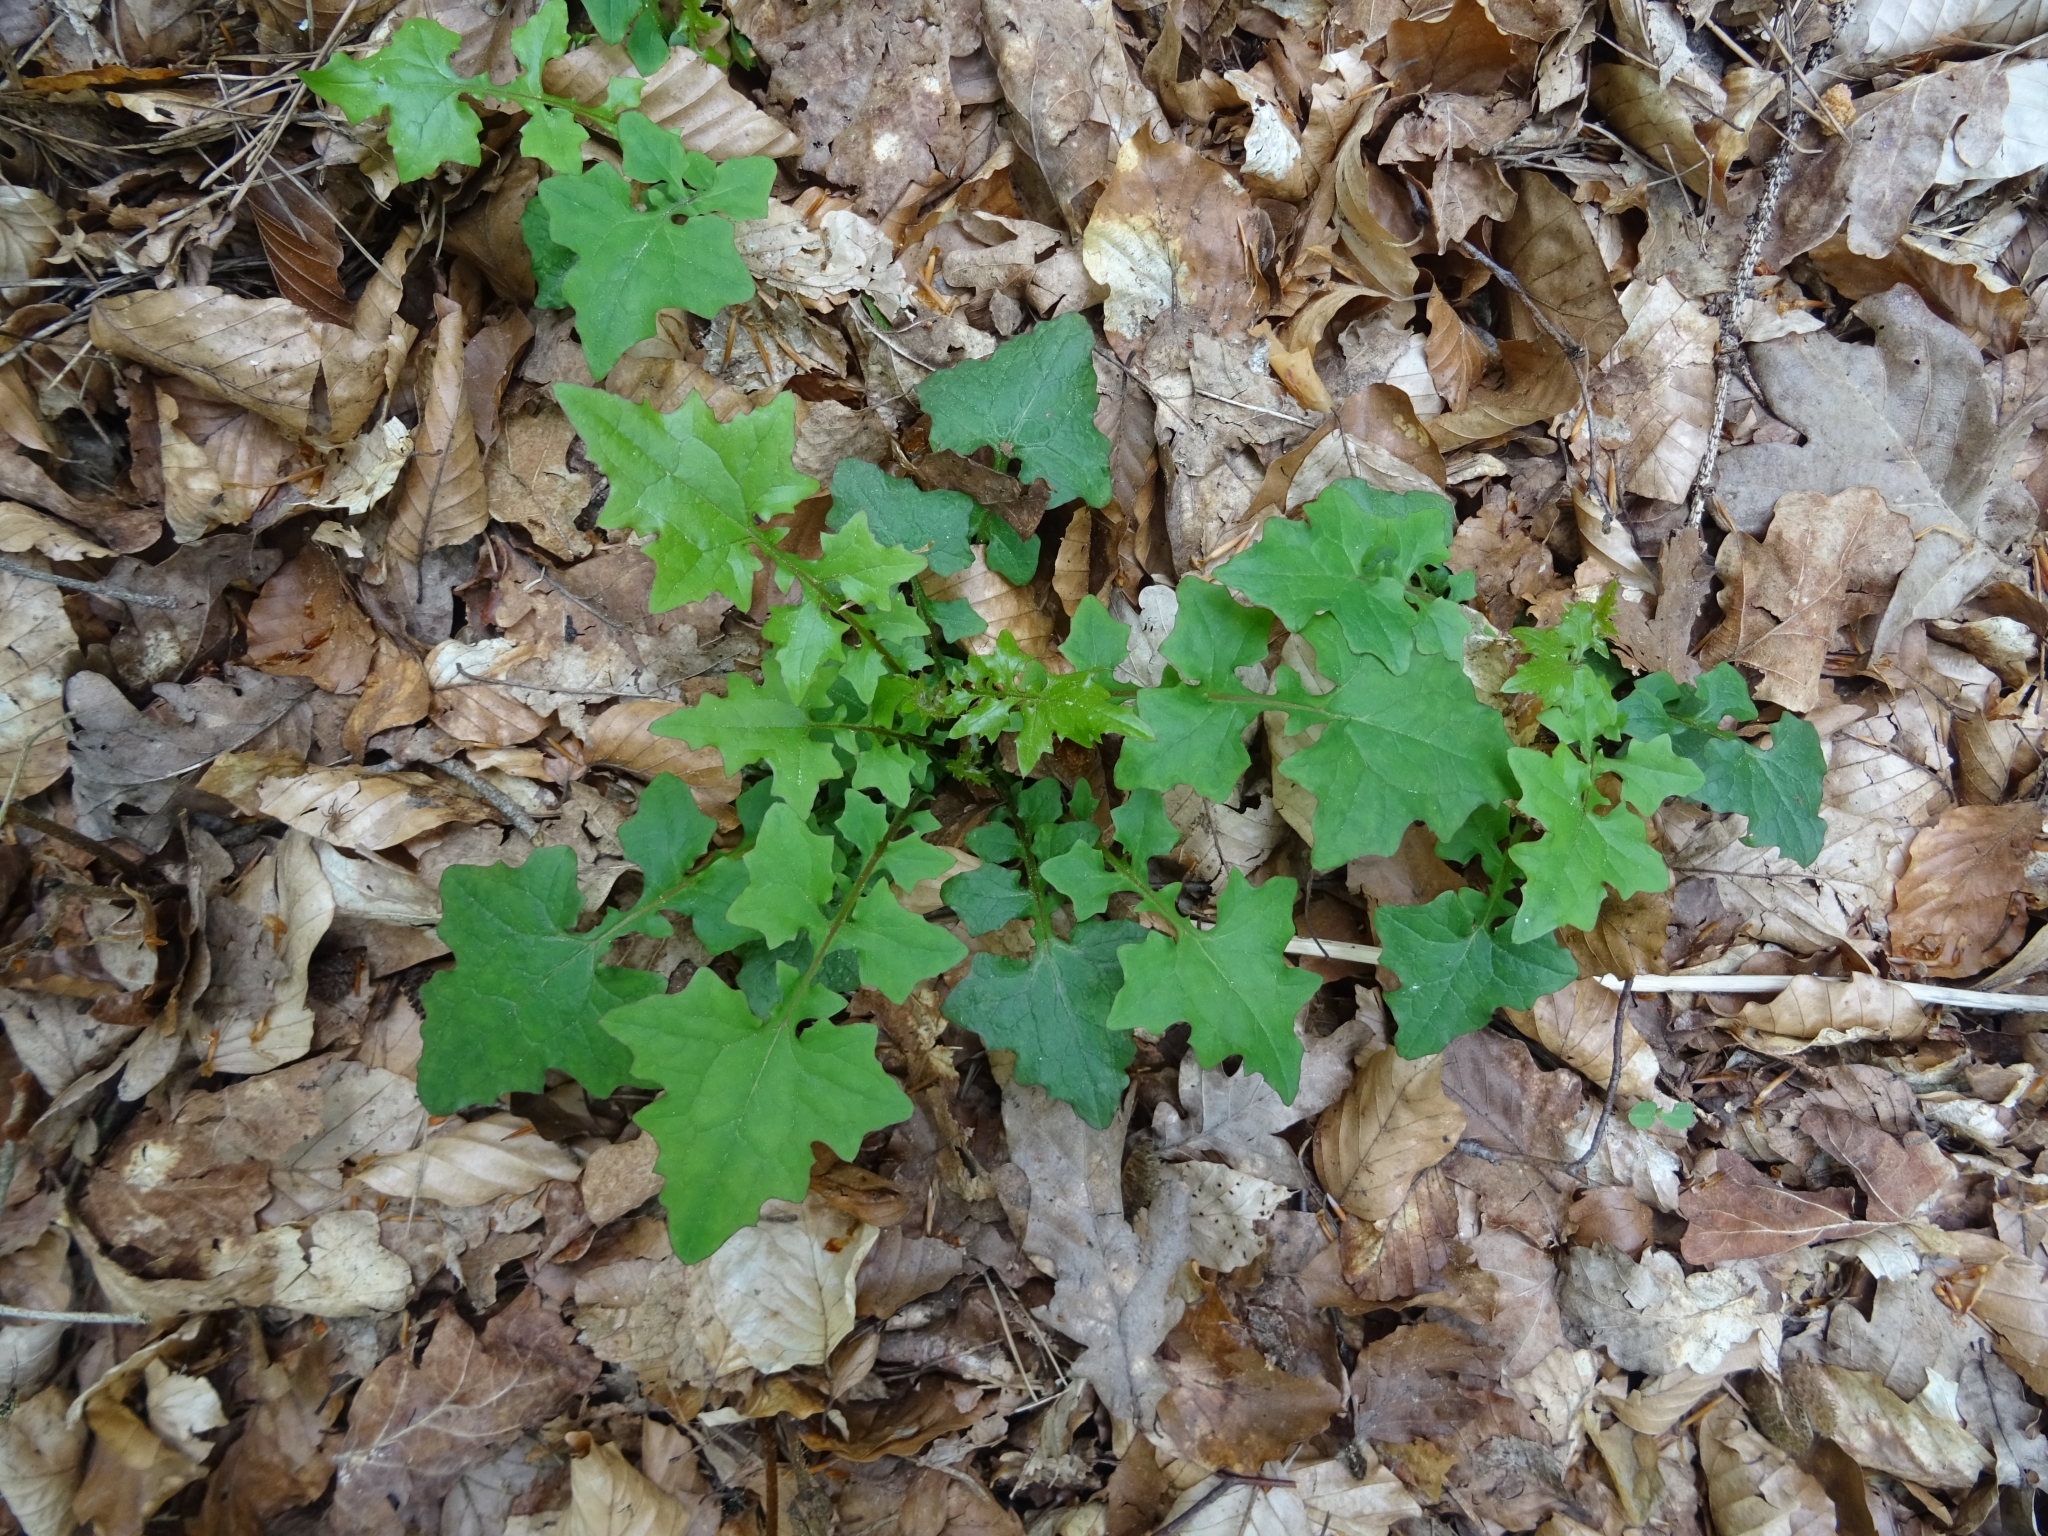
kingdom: Plantae
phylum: Tracheophyta
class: Magnoliopsida
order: Asterales
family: Asteraceae
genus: Mycelis
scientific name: Mycelis muralis
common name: Wall lettuce
